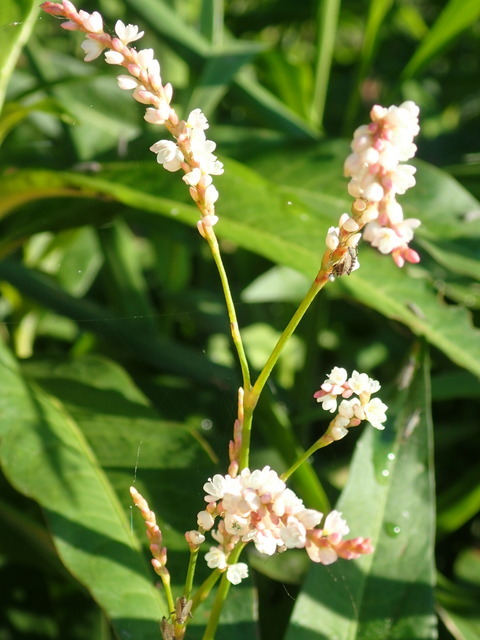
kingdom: Plantae
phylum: Tracheophyta
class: Magnoliopsida
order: Caryophyllales
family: Polygonaceae
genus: Persicaria
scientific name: Persicaria hydropiperoides
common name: Swamp smartweed
